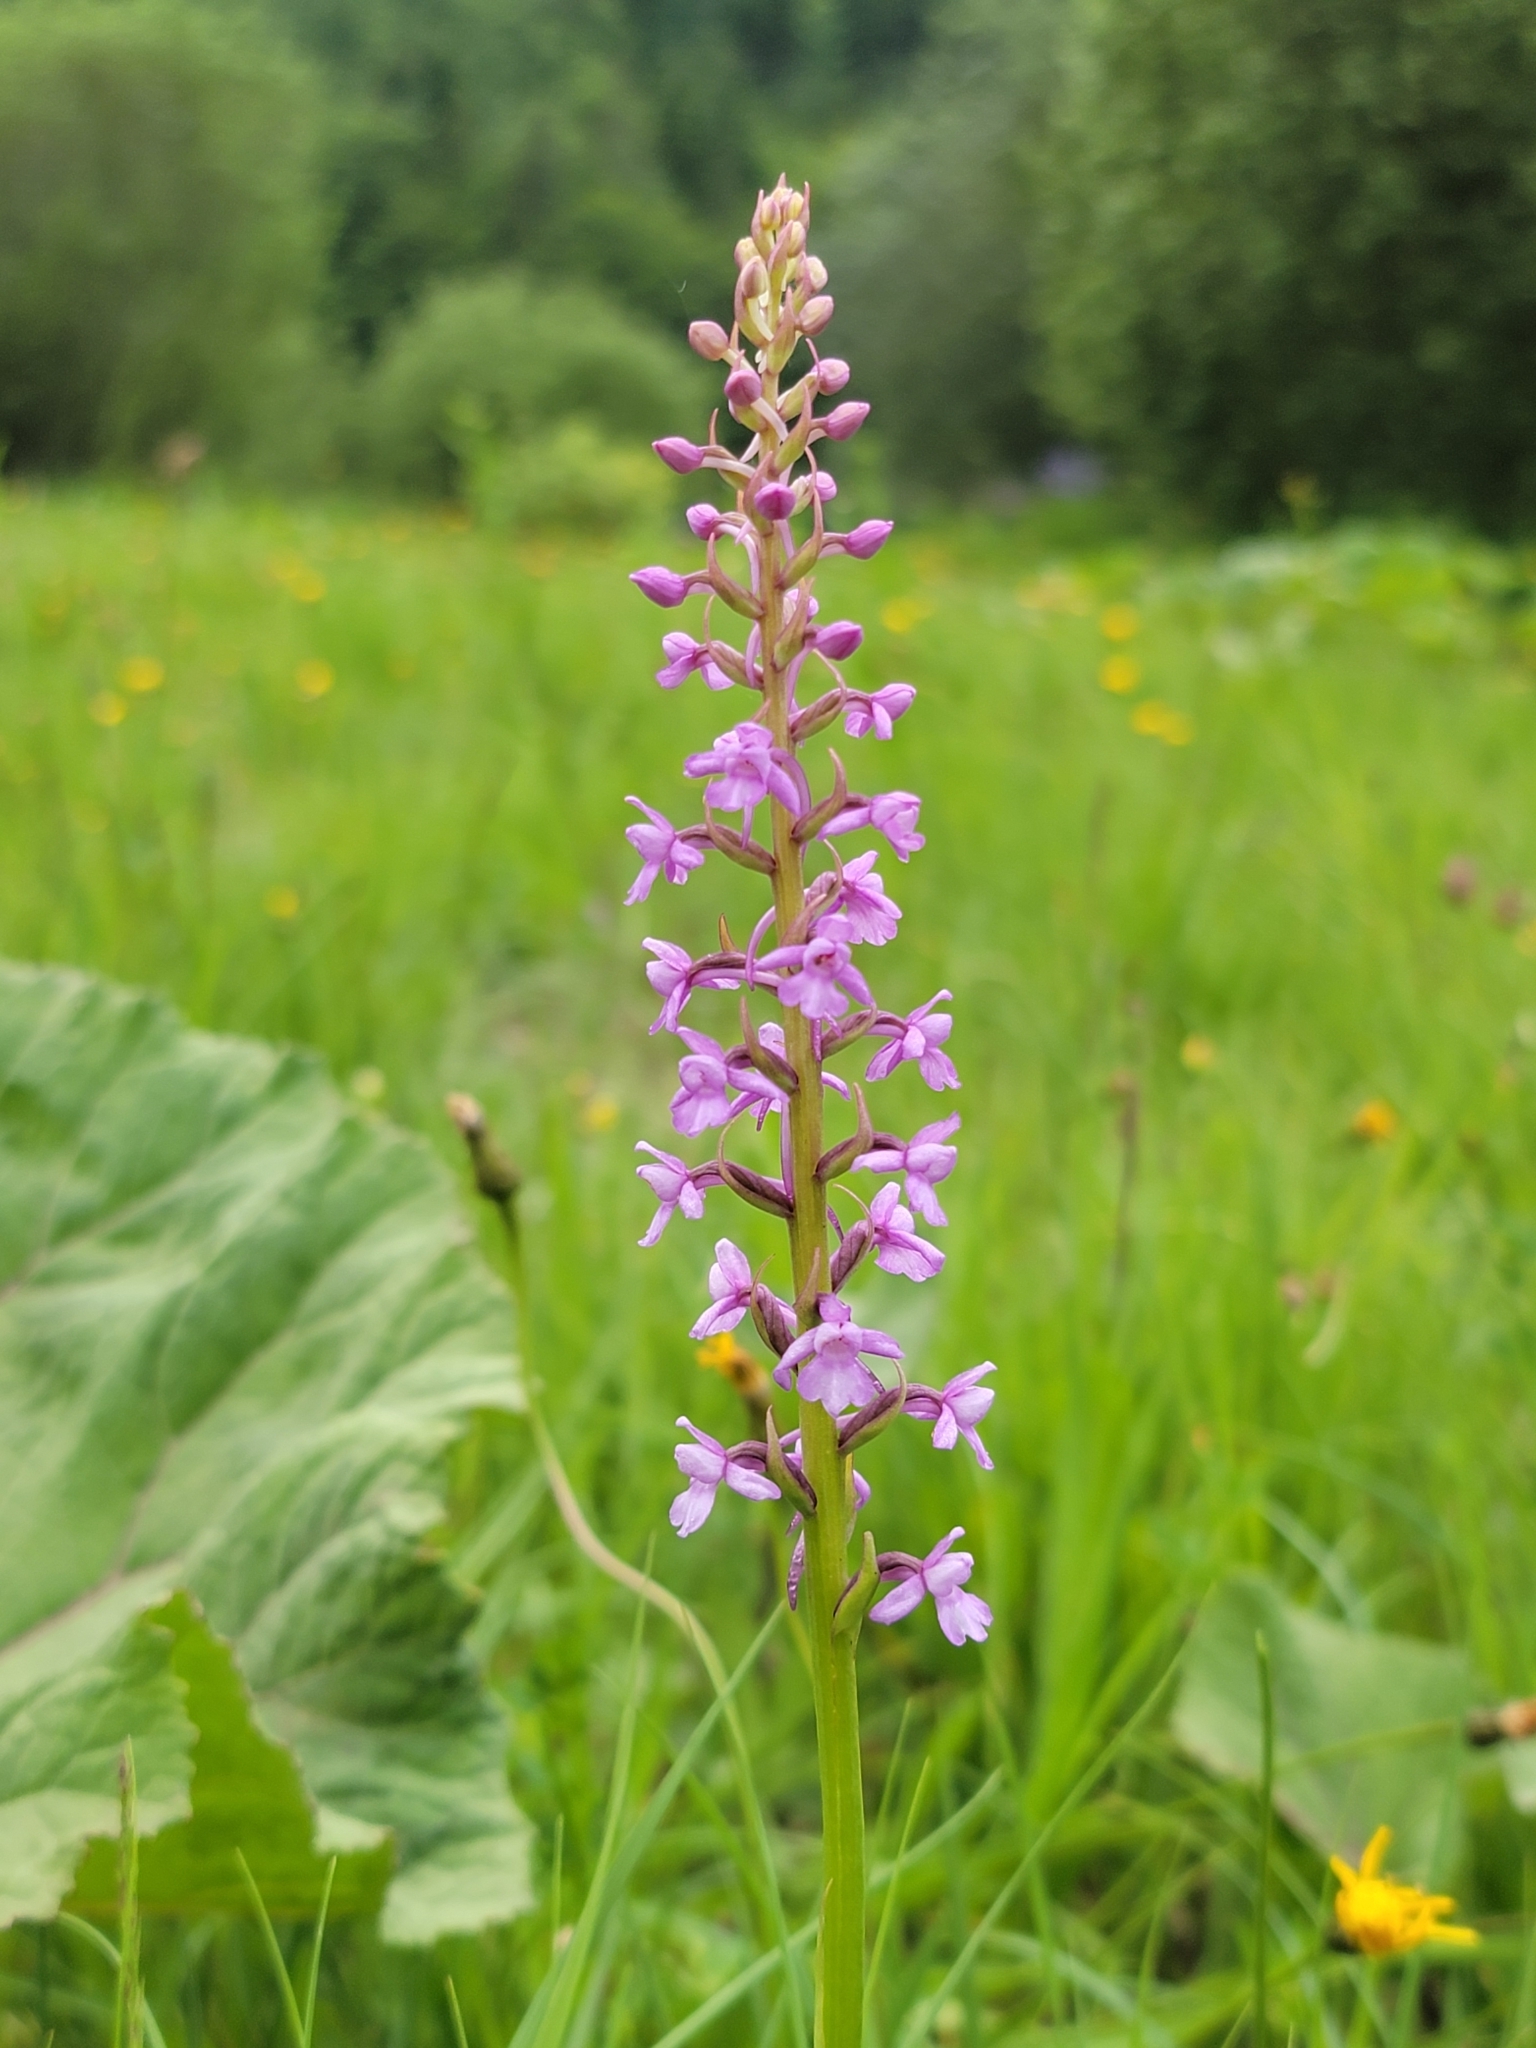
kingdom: Plantae
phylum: Tracheophyta
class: Liliopsida
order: Asparagales
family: Orchidaceae
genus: Gymnadenia
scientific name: Gymnadenia conopsea
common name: Fragrant orchid
